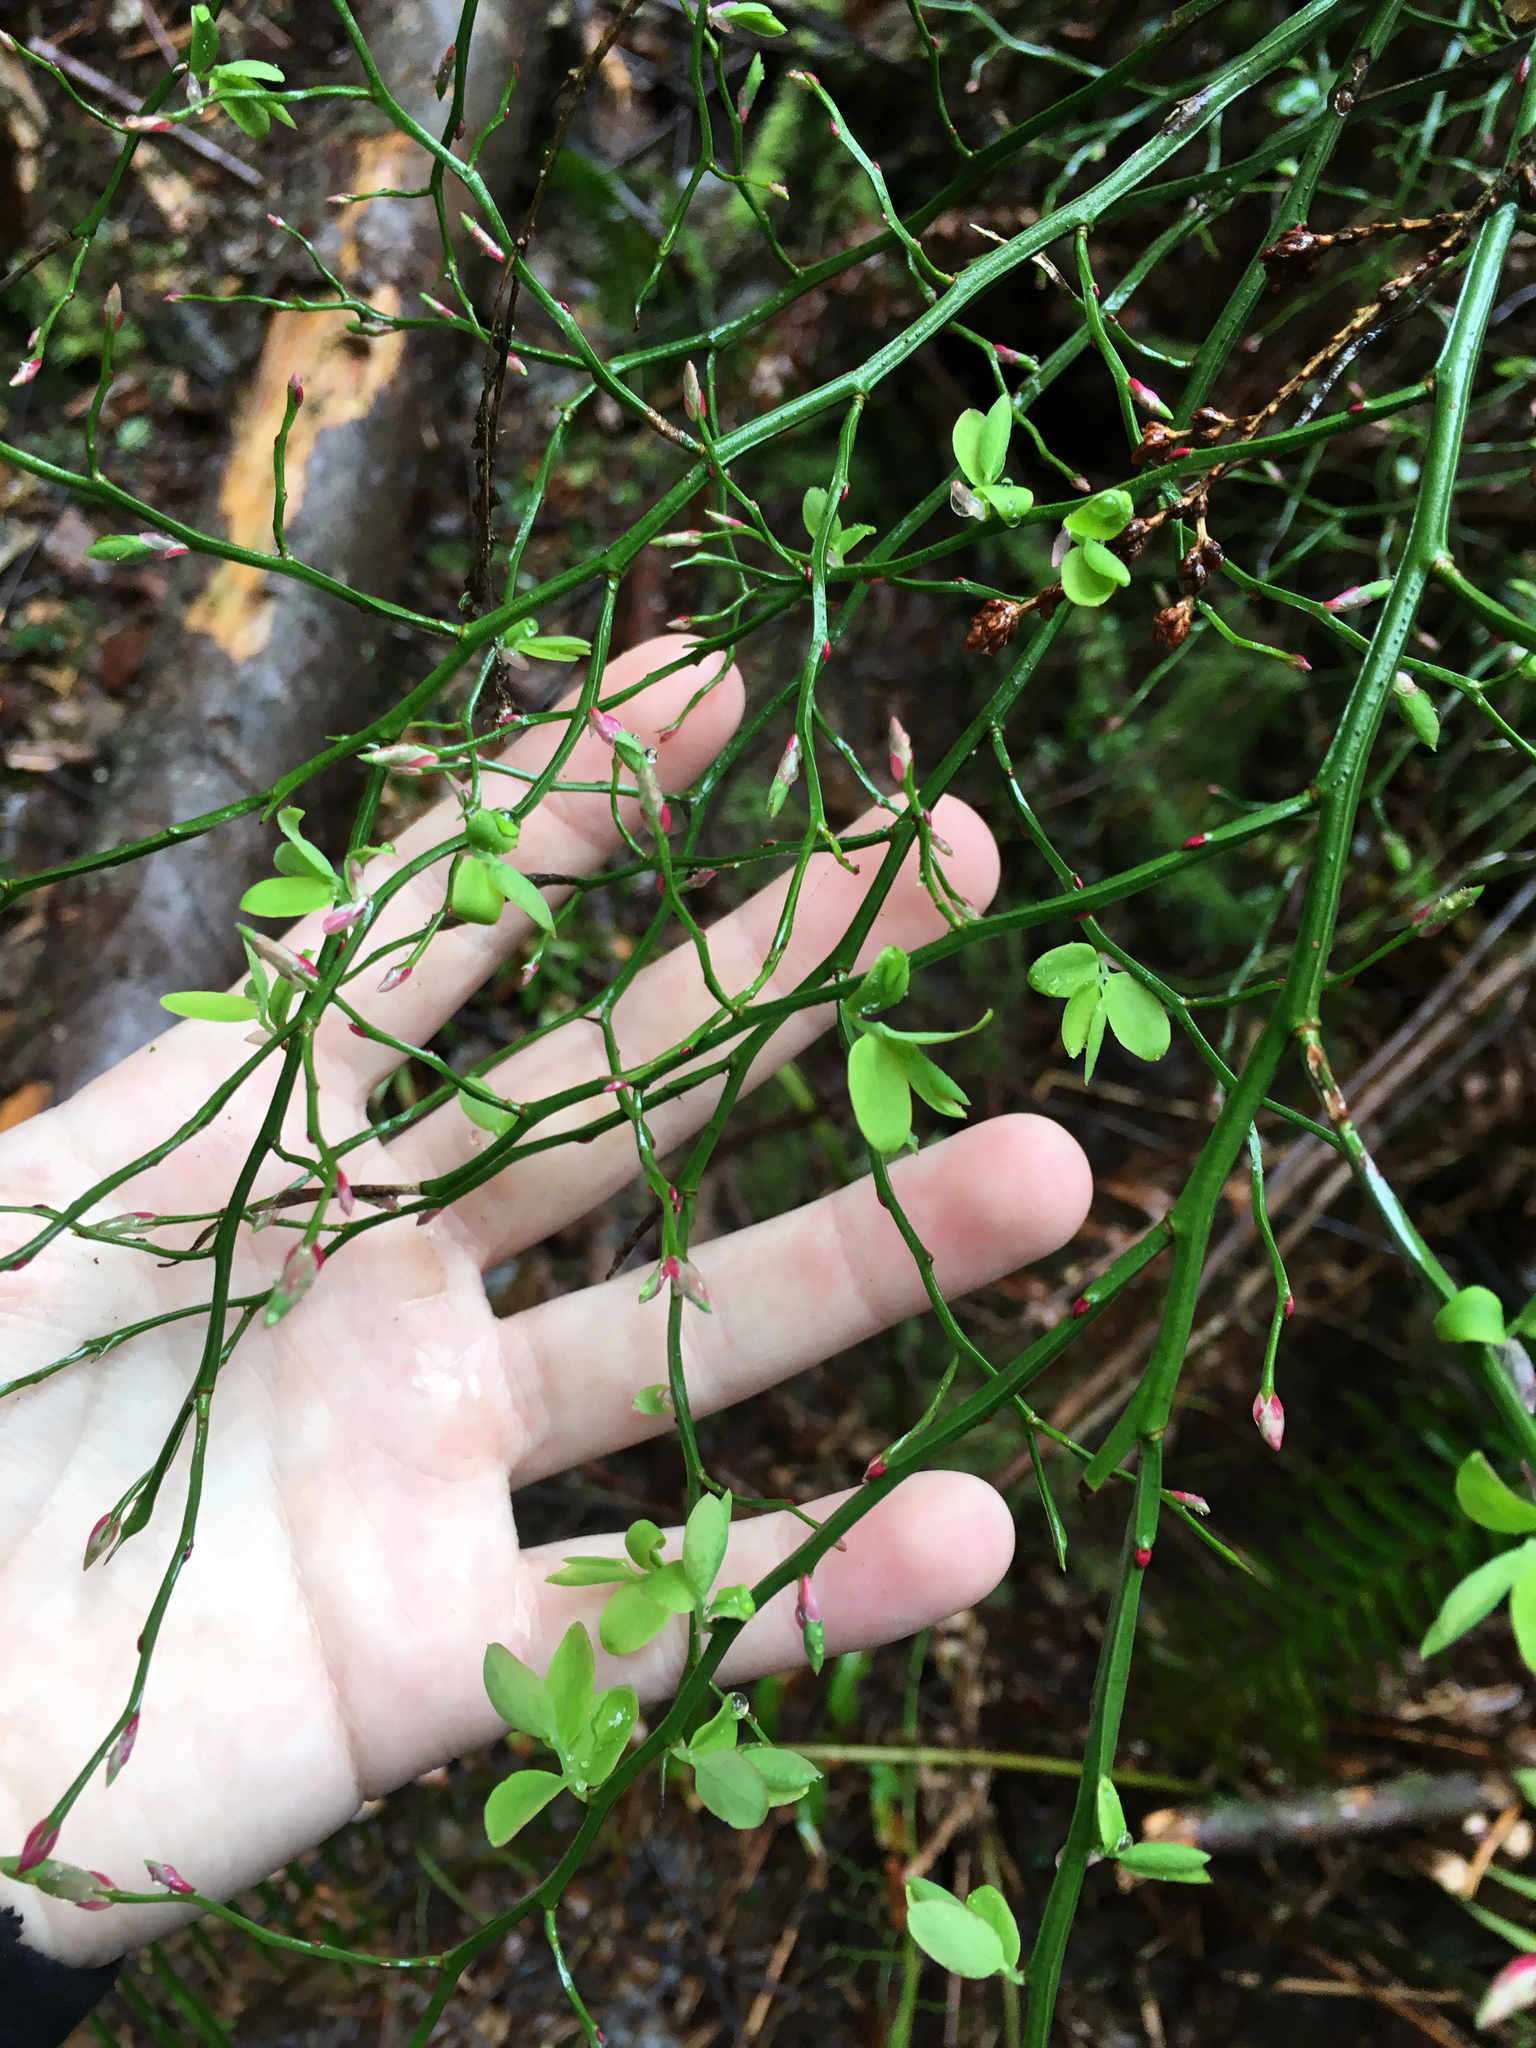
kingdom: Plantae
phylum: Tracheophyta
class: Magnoliopsida
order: Ericales
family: Ericaceae
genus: Vaccinium
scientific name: Vaccinium parvifolium
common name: Red-huckleberry
